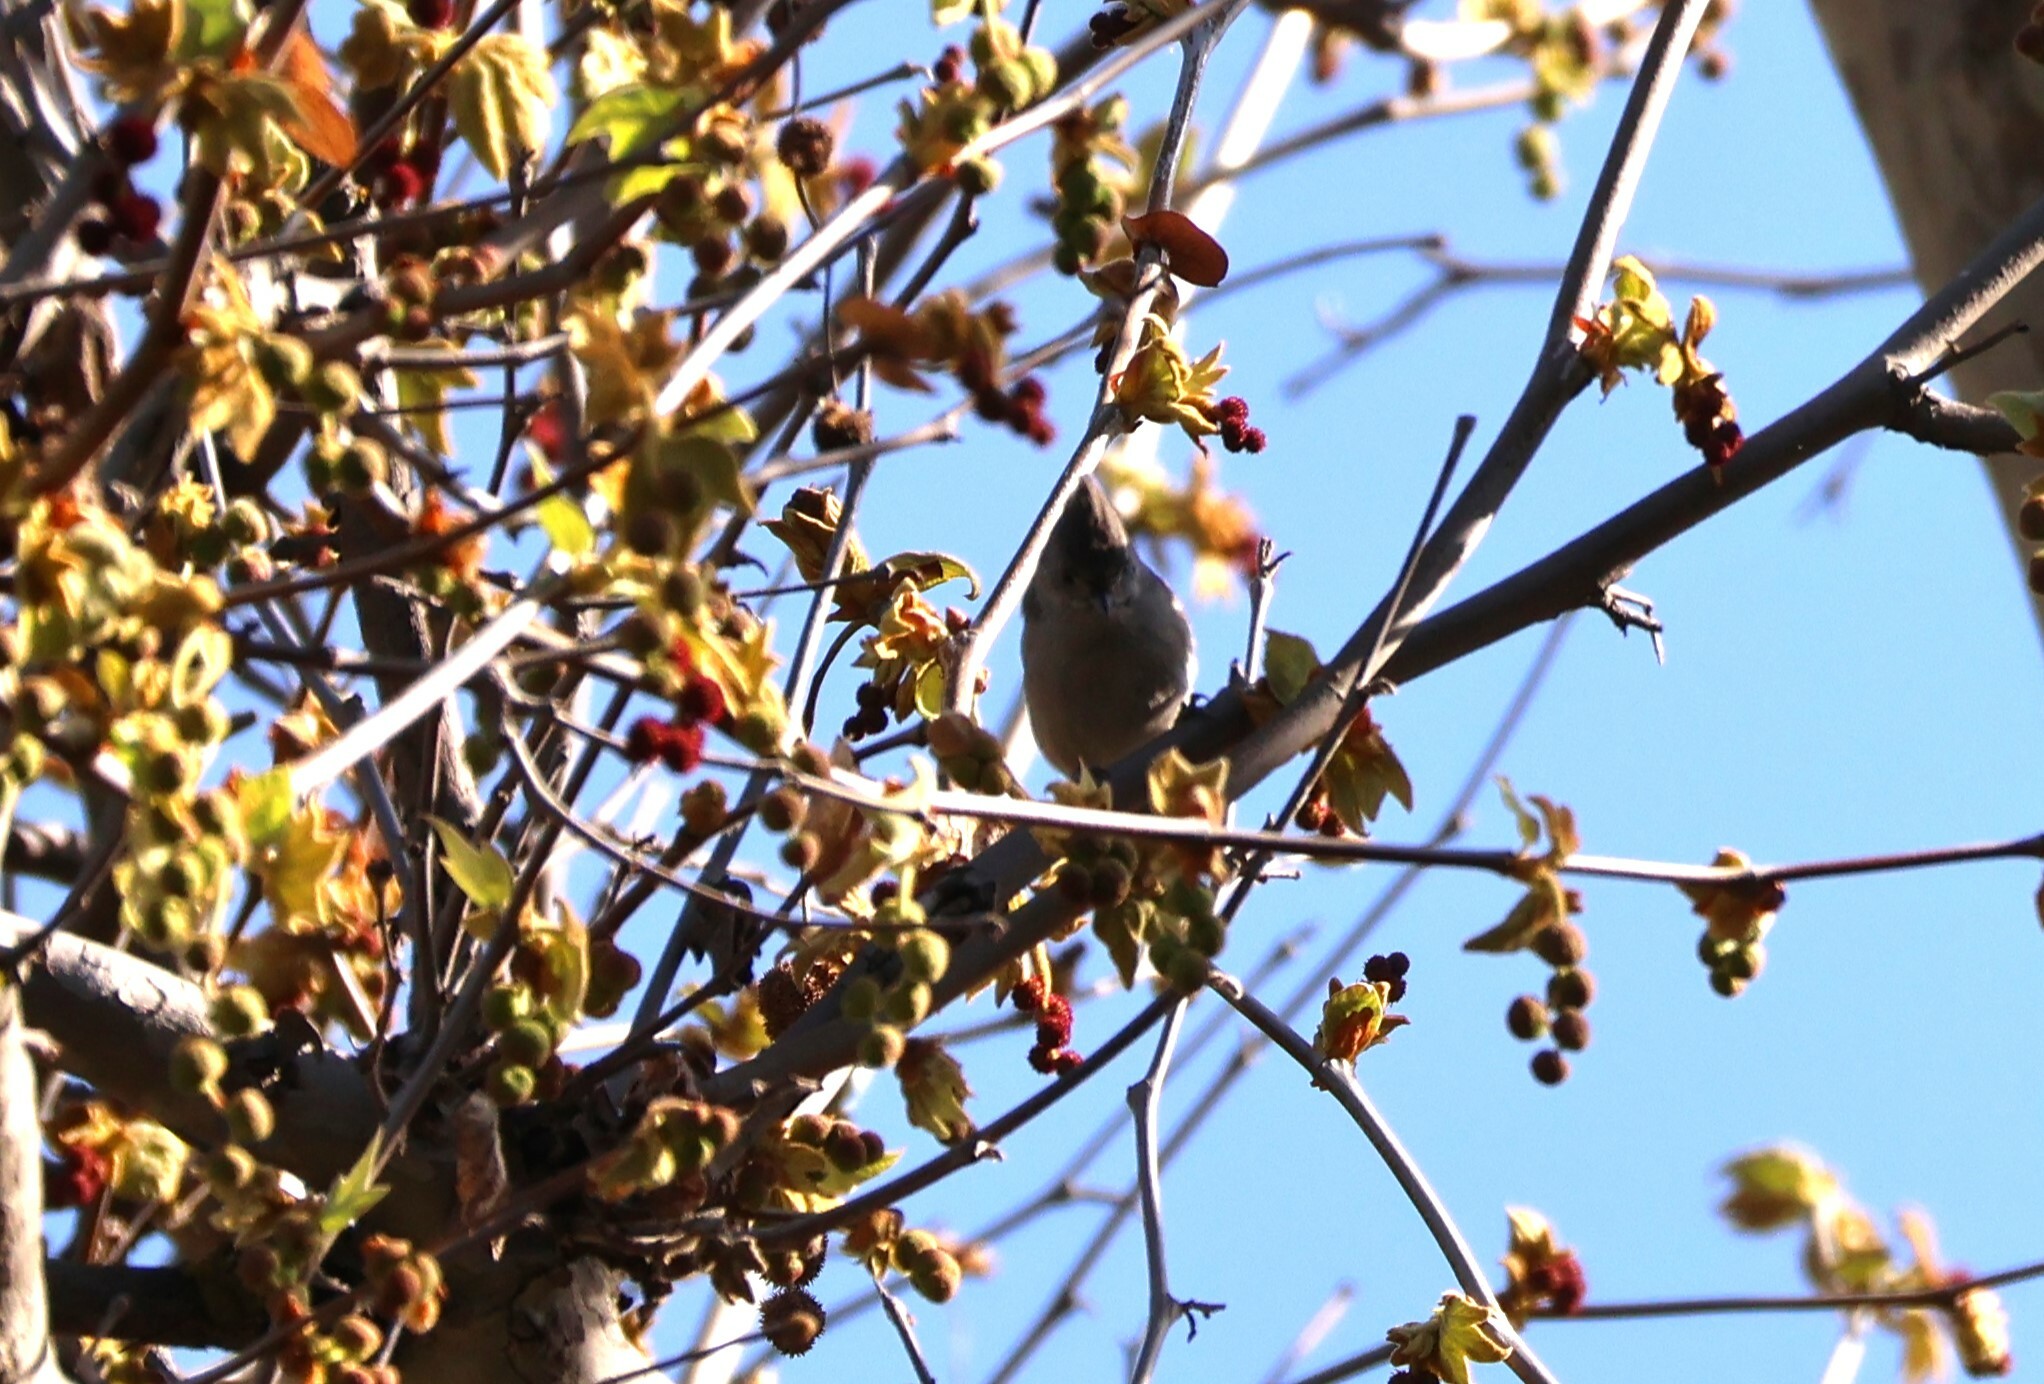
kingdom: Animalia
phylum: Chordata
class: Aves
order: Passeriformes
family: Paridae
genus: Baeolophus
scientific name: Baeolophus inornatus
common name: Oak titmouse
